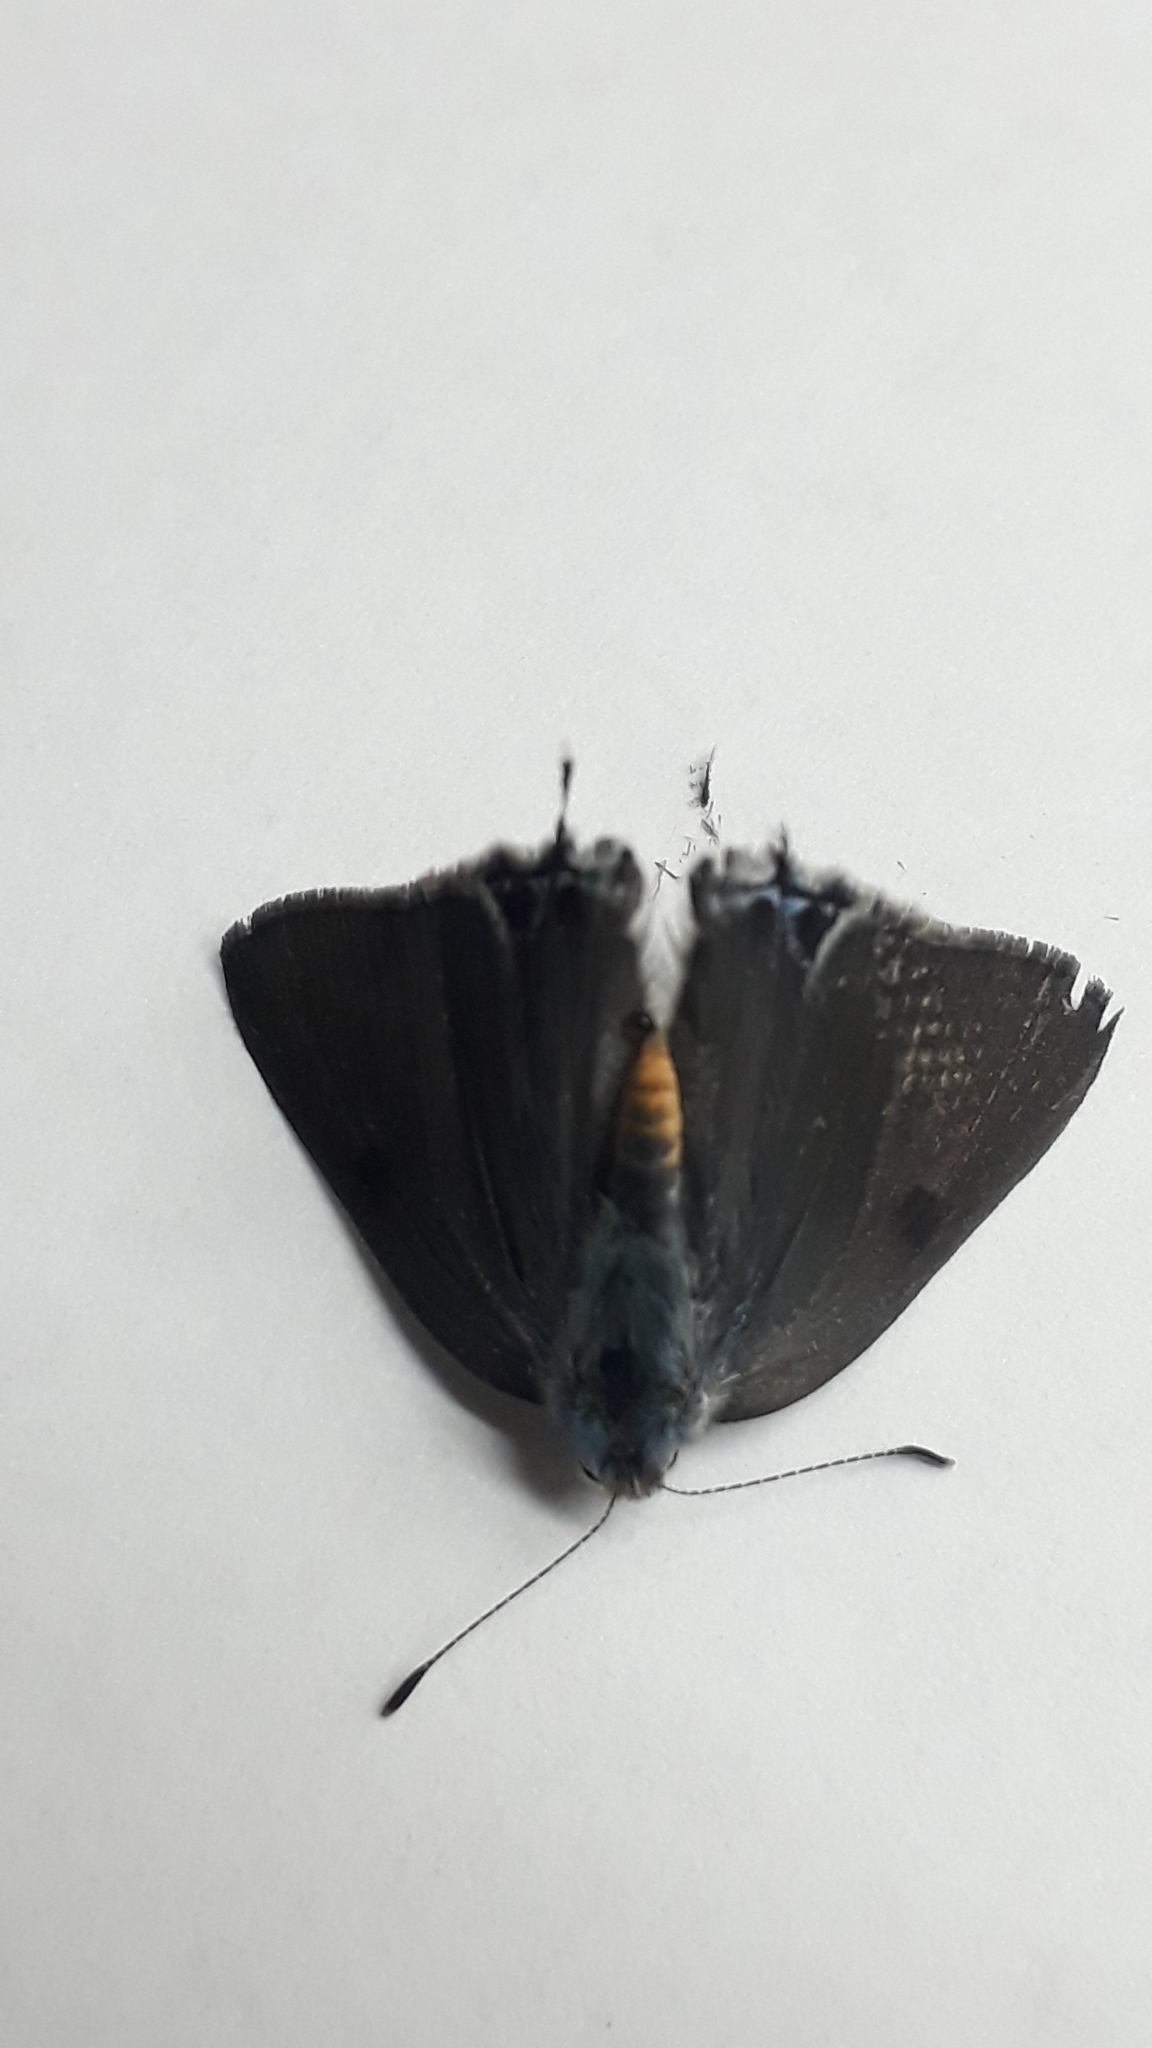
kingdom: Animalia
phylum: Arthropoda
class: Insecta
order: Lepidoptera
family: Lycaenidae
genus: Strymon
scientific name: Strymon eurytulus
